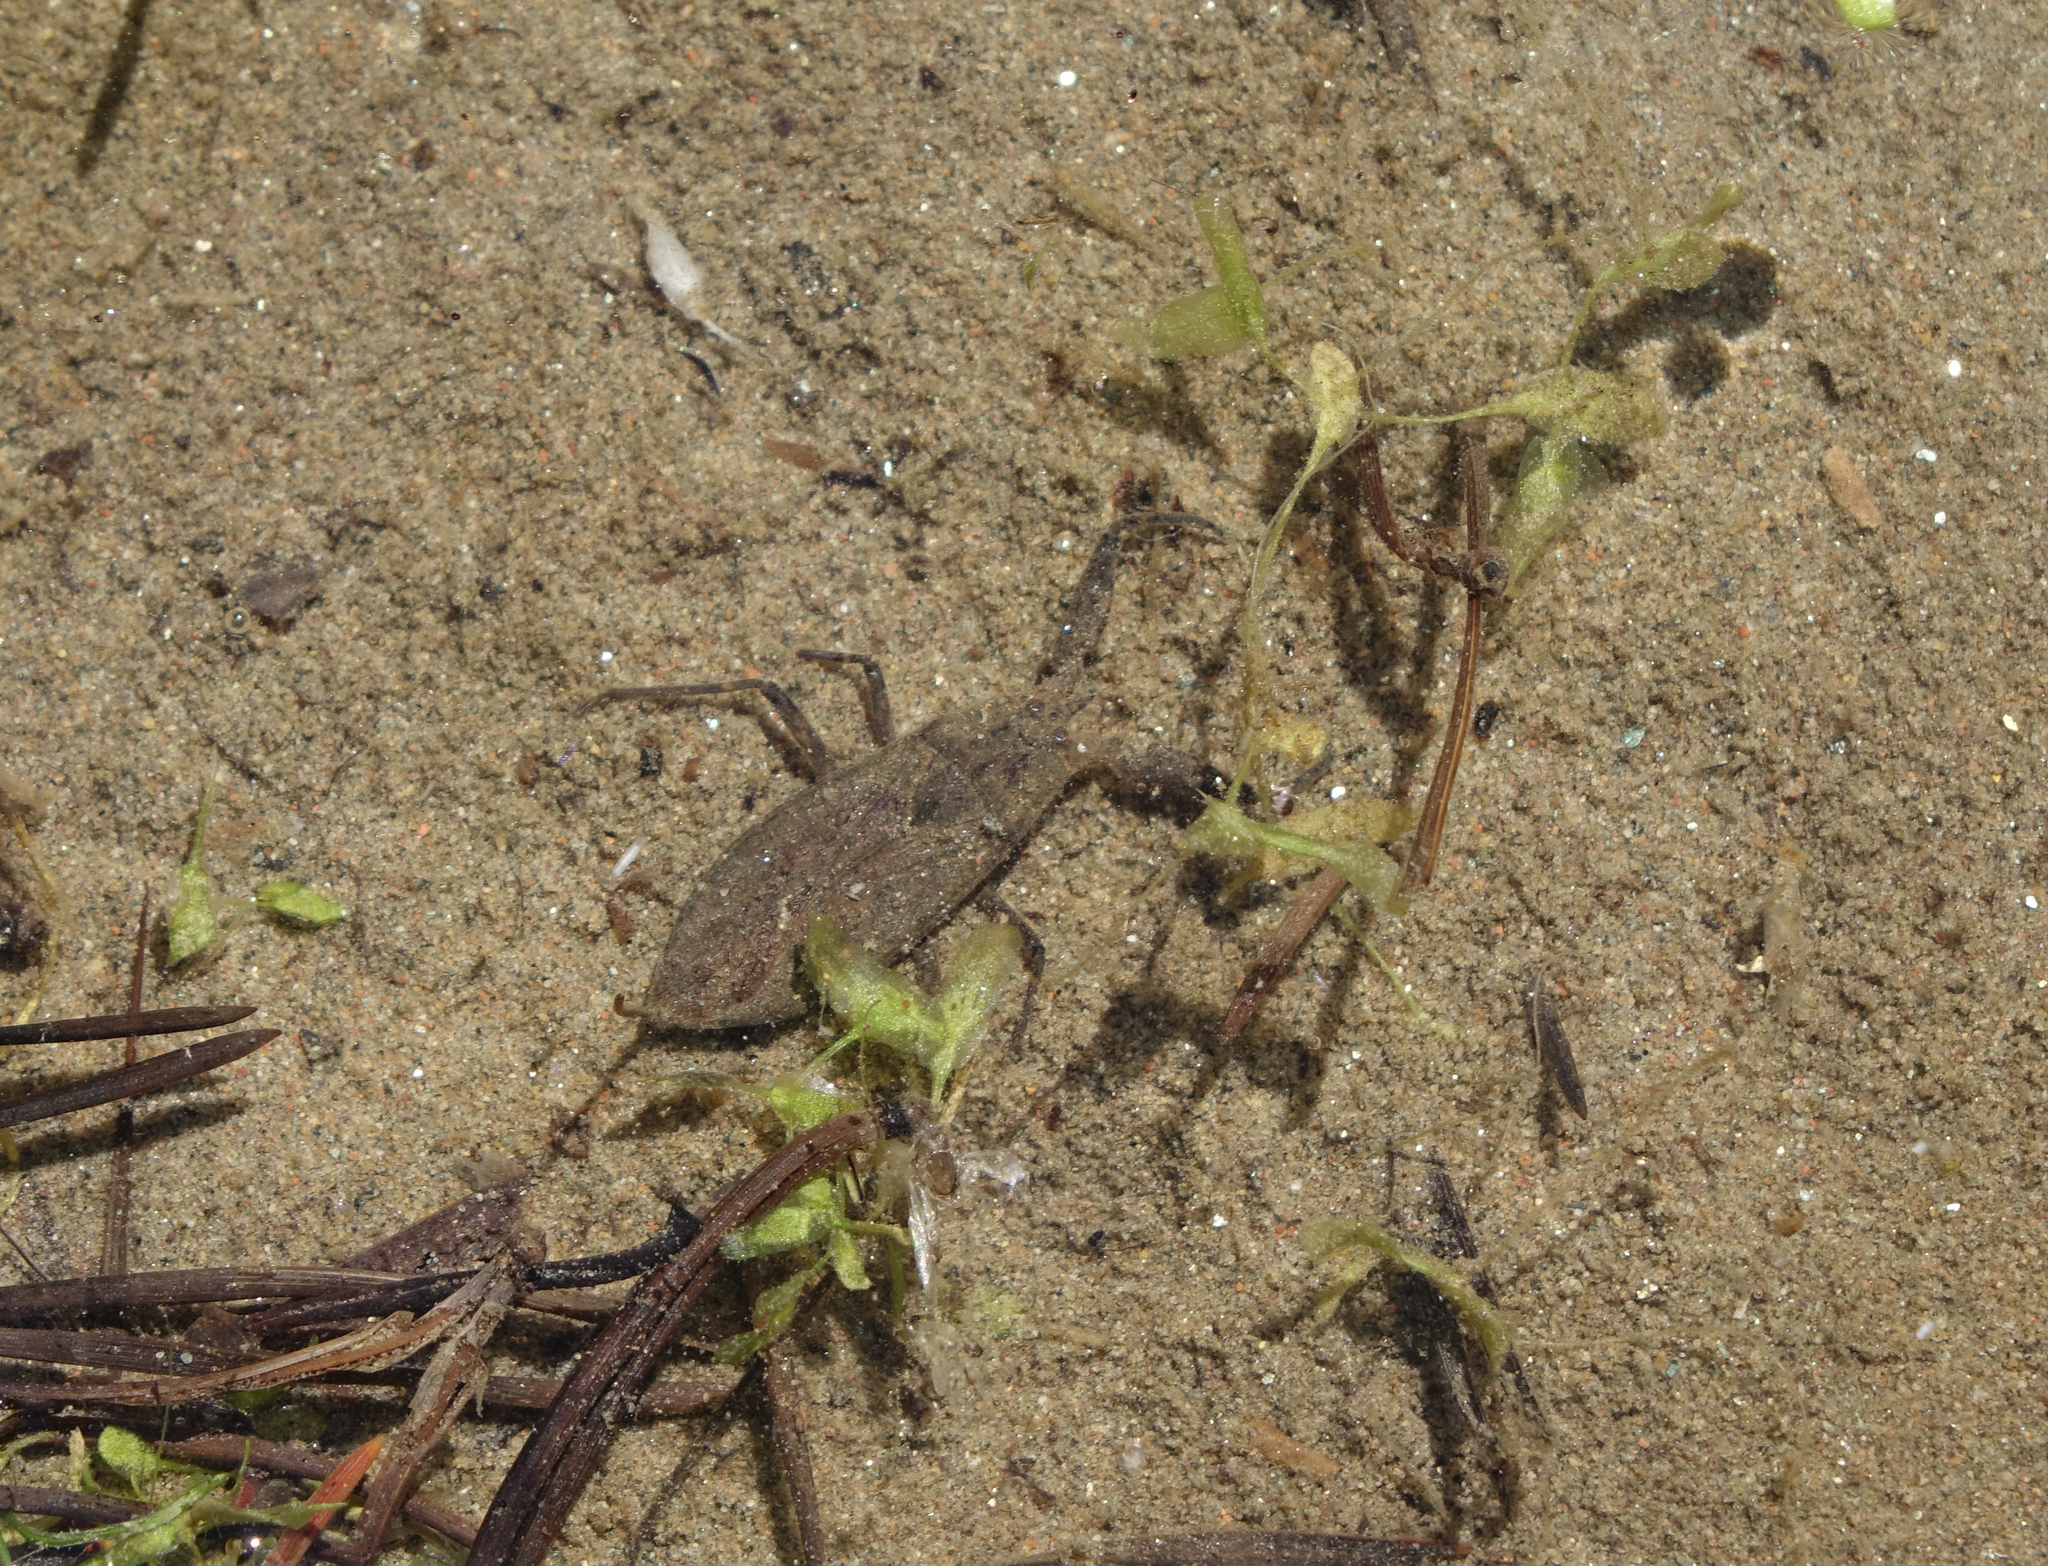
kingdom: Plantae
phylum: Tracheophyta
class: Liliopsida
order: Alismatales
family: Araceae
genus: Lemna
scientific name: Lemna trisulca
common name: Ivy-leaved duckweed
